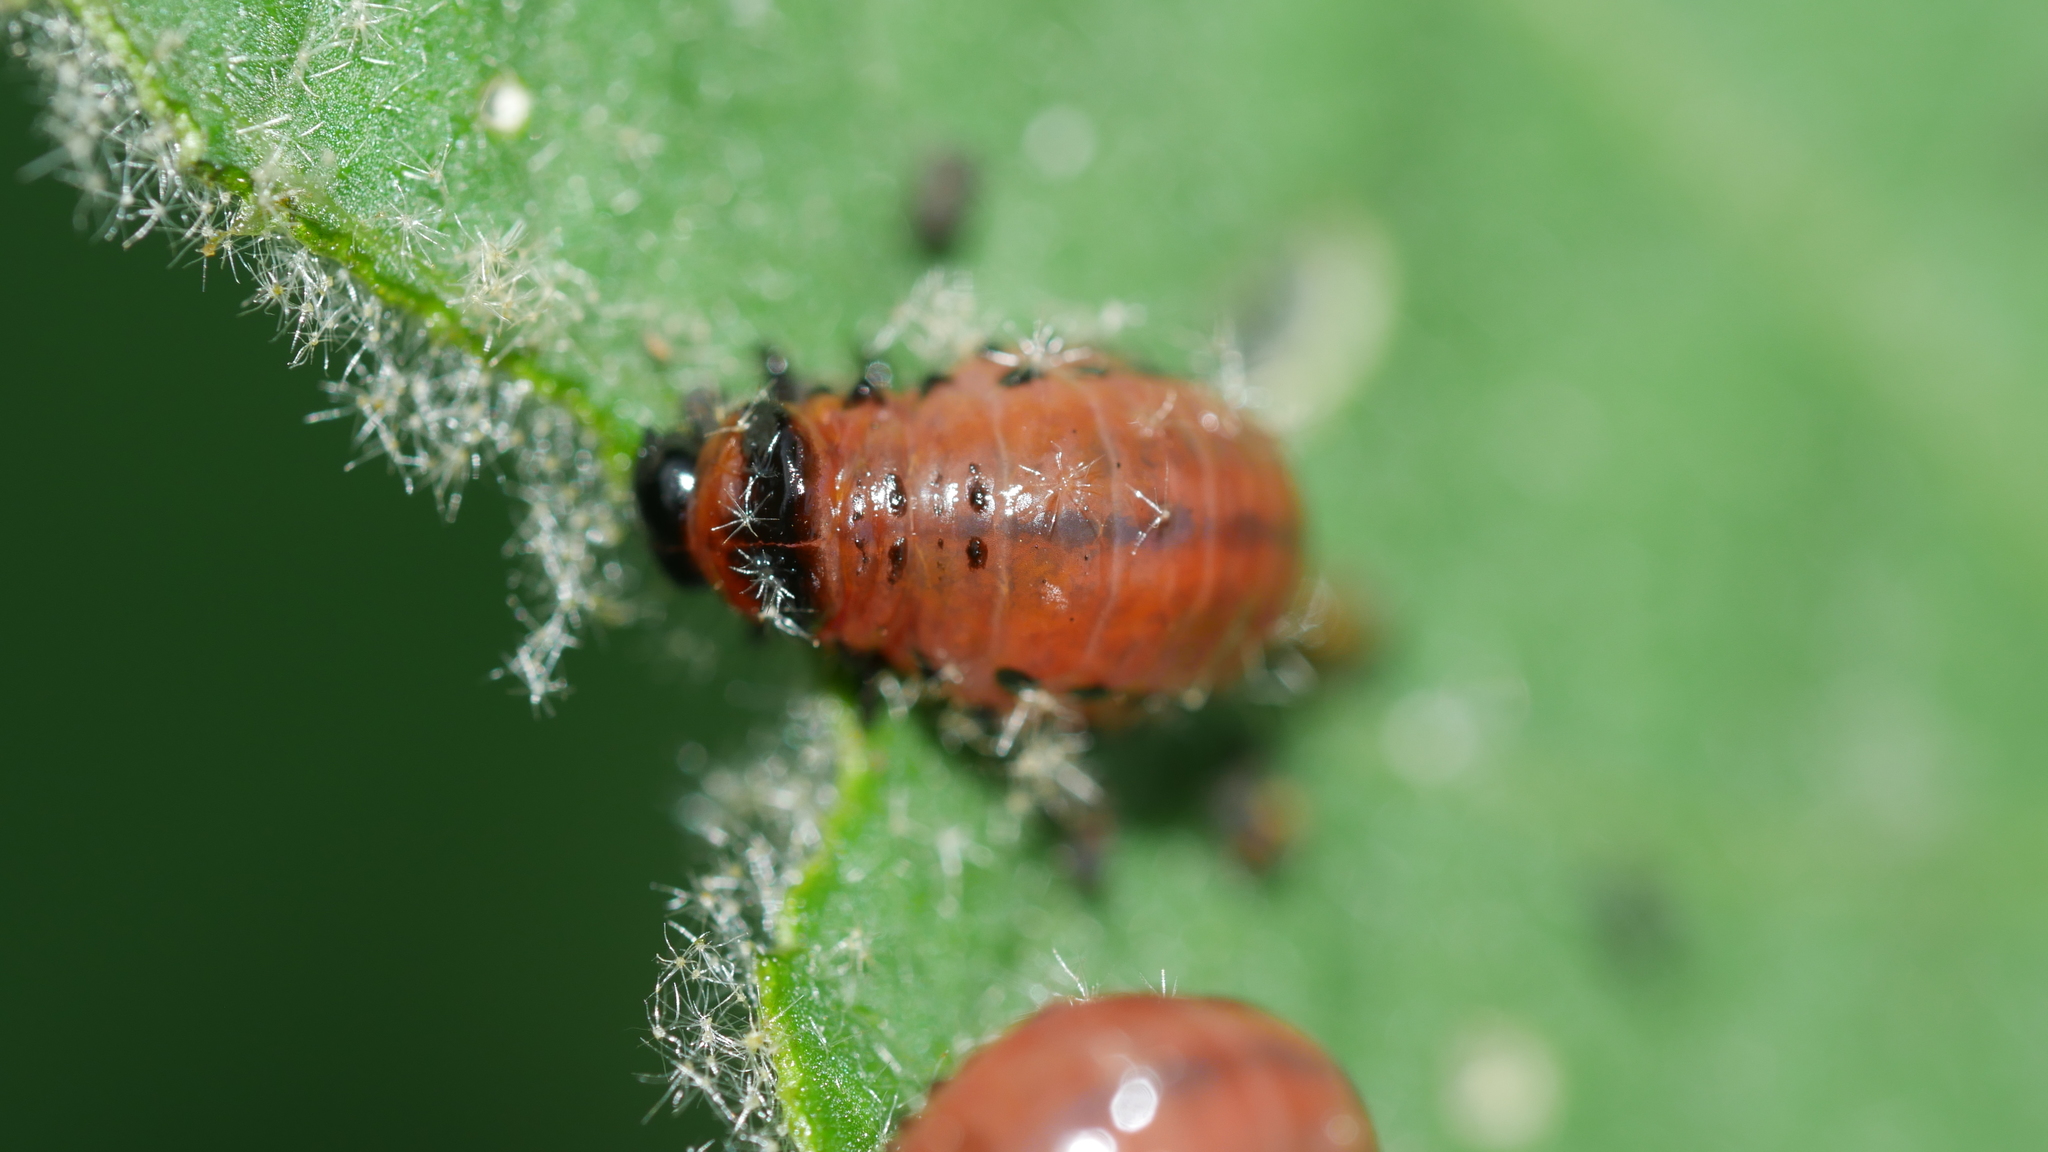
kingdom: Animalia
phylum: Arthropoda
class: Insecta
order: Coleoptera
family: Chrysomelidae
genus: Leptinotarsa
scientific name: Leptinotarsa decemlineata
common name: Colorado potato beetle
